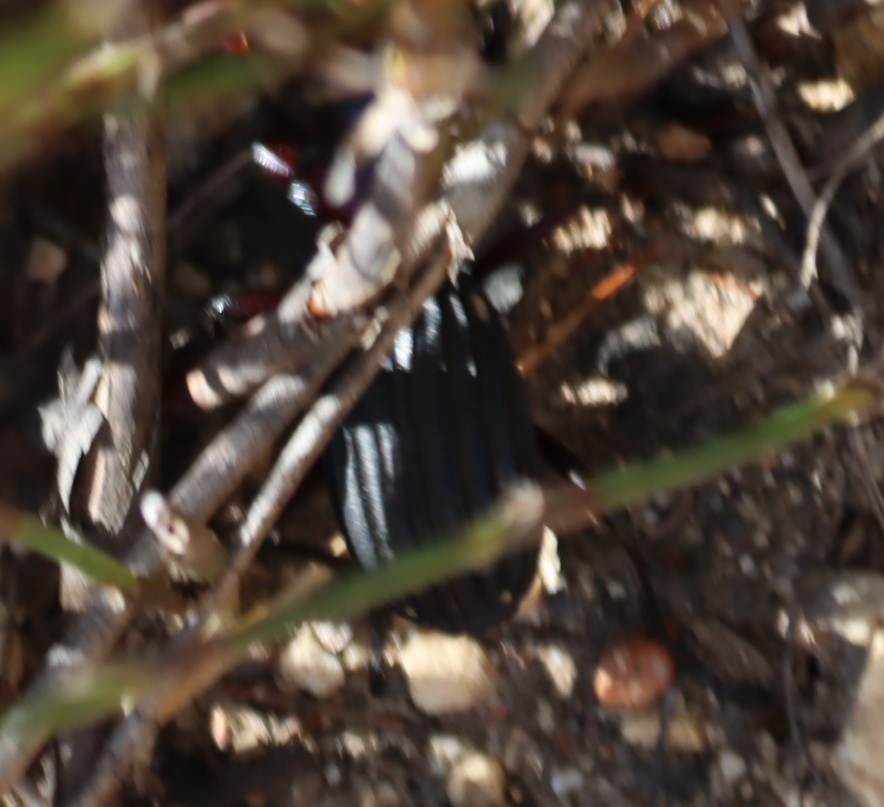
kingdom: Animalia
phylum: Arthropoda
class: Insecta
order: Coleoptera
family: Carabidae
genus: Anthia
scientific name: Anthia decemguttata
